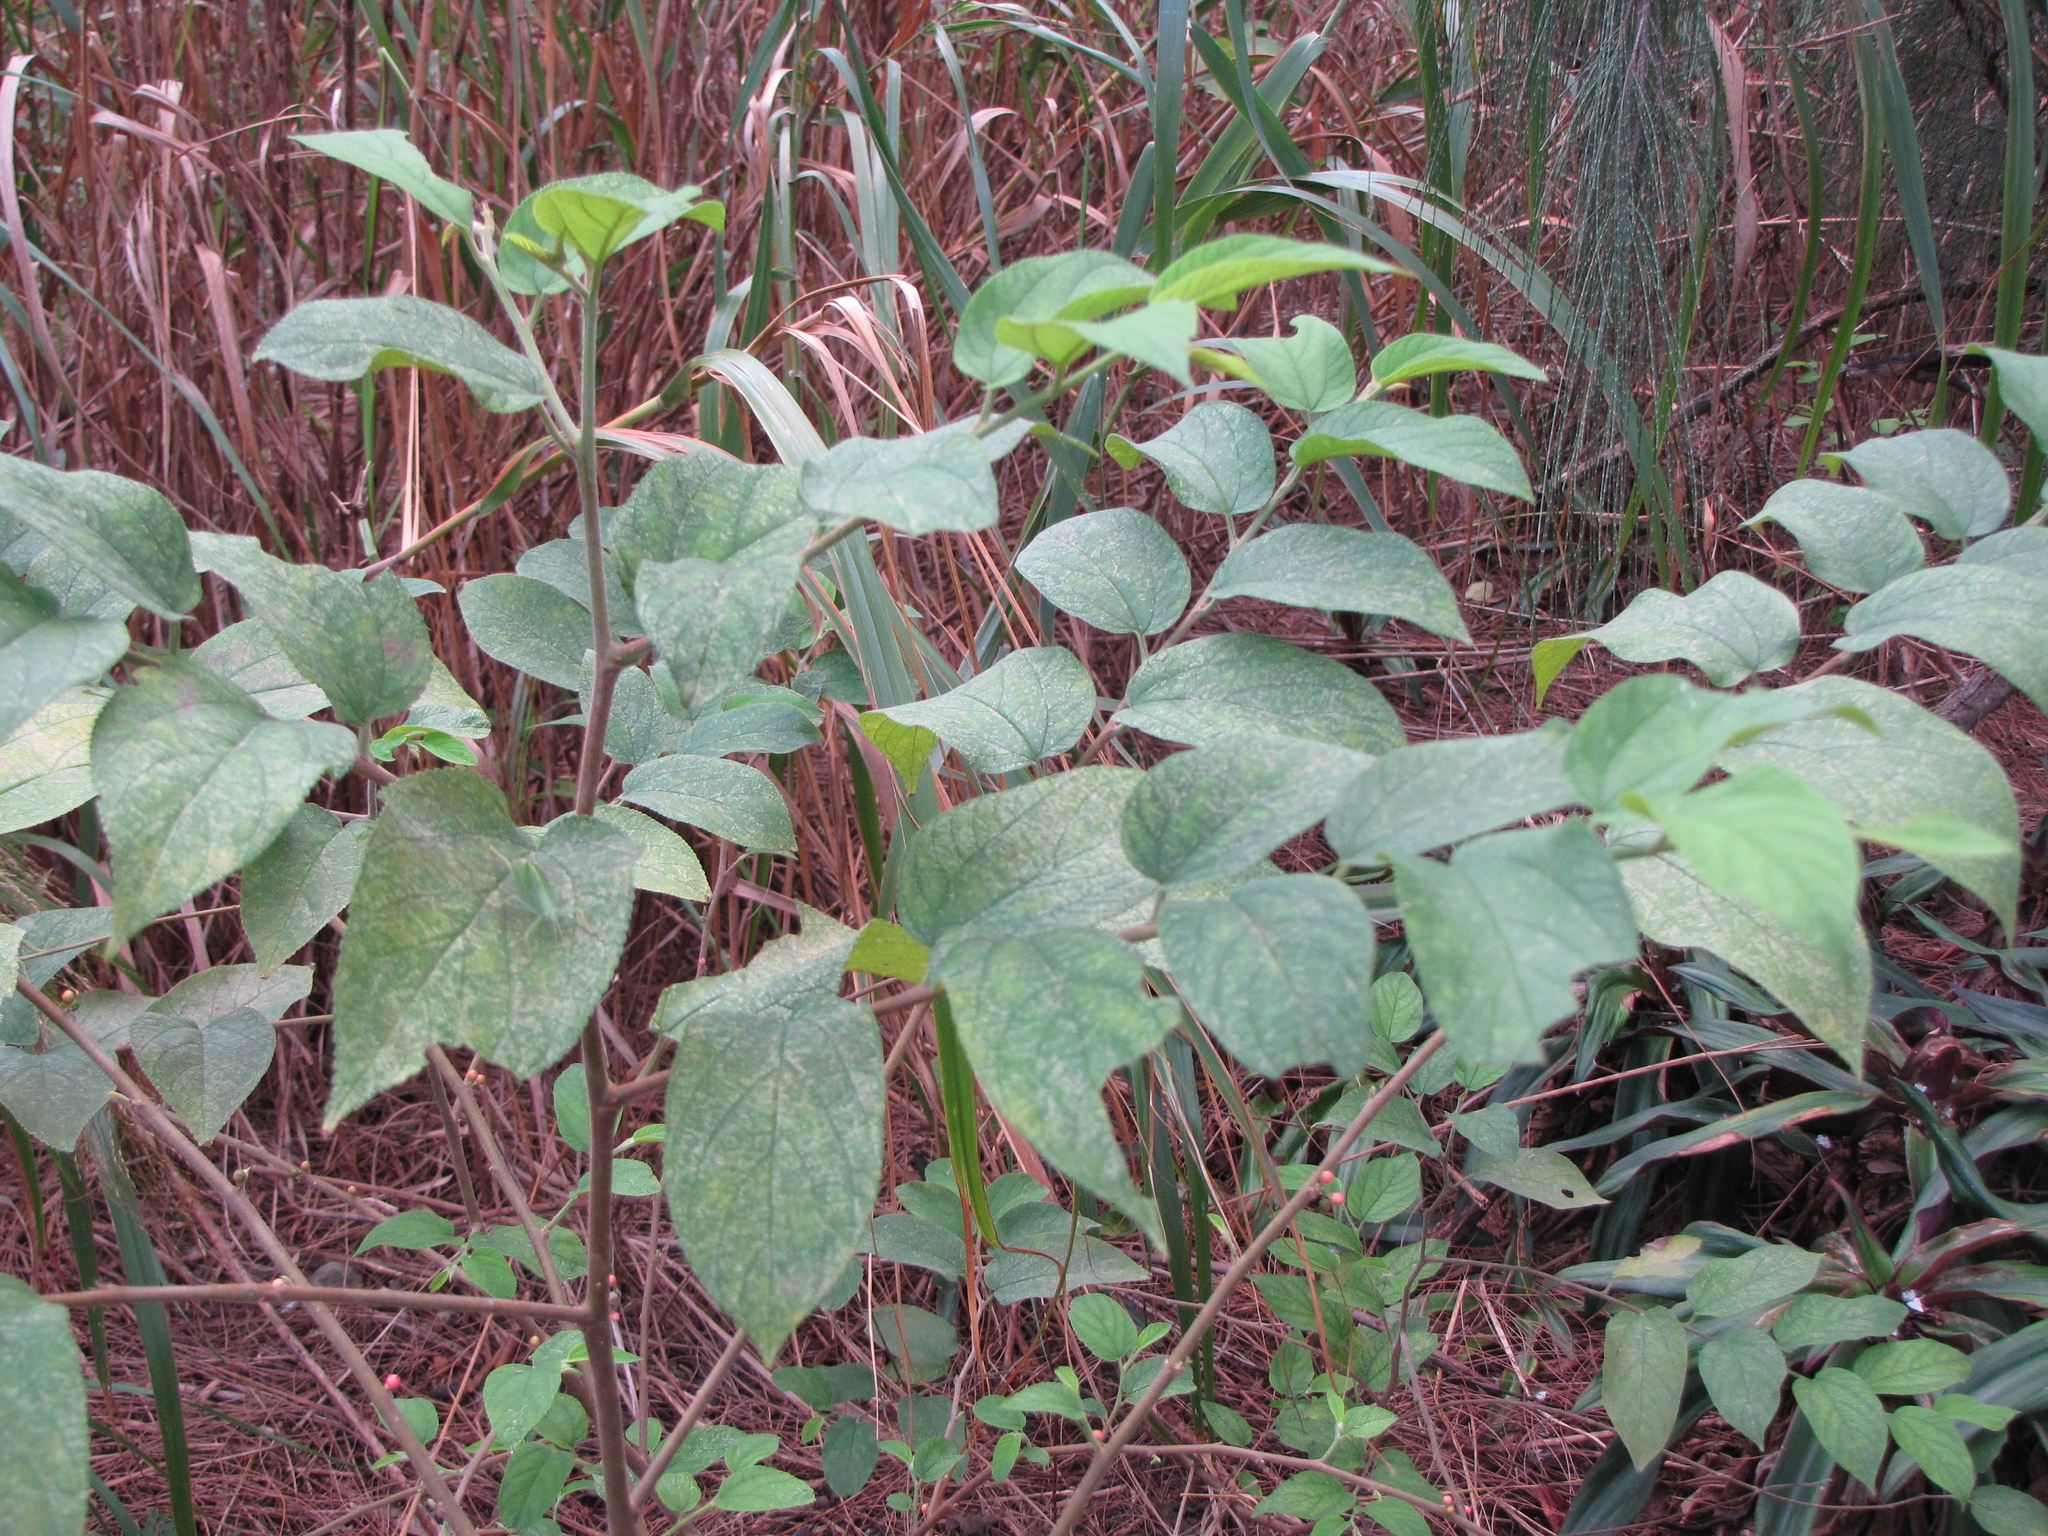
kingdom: Plantae
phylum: Tracheophyta
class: Magnoliopsida
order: Rosales
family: Cannabaceae
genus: Trema
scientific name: Trema micranthum
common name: Jamaican nettletree
